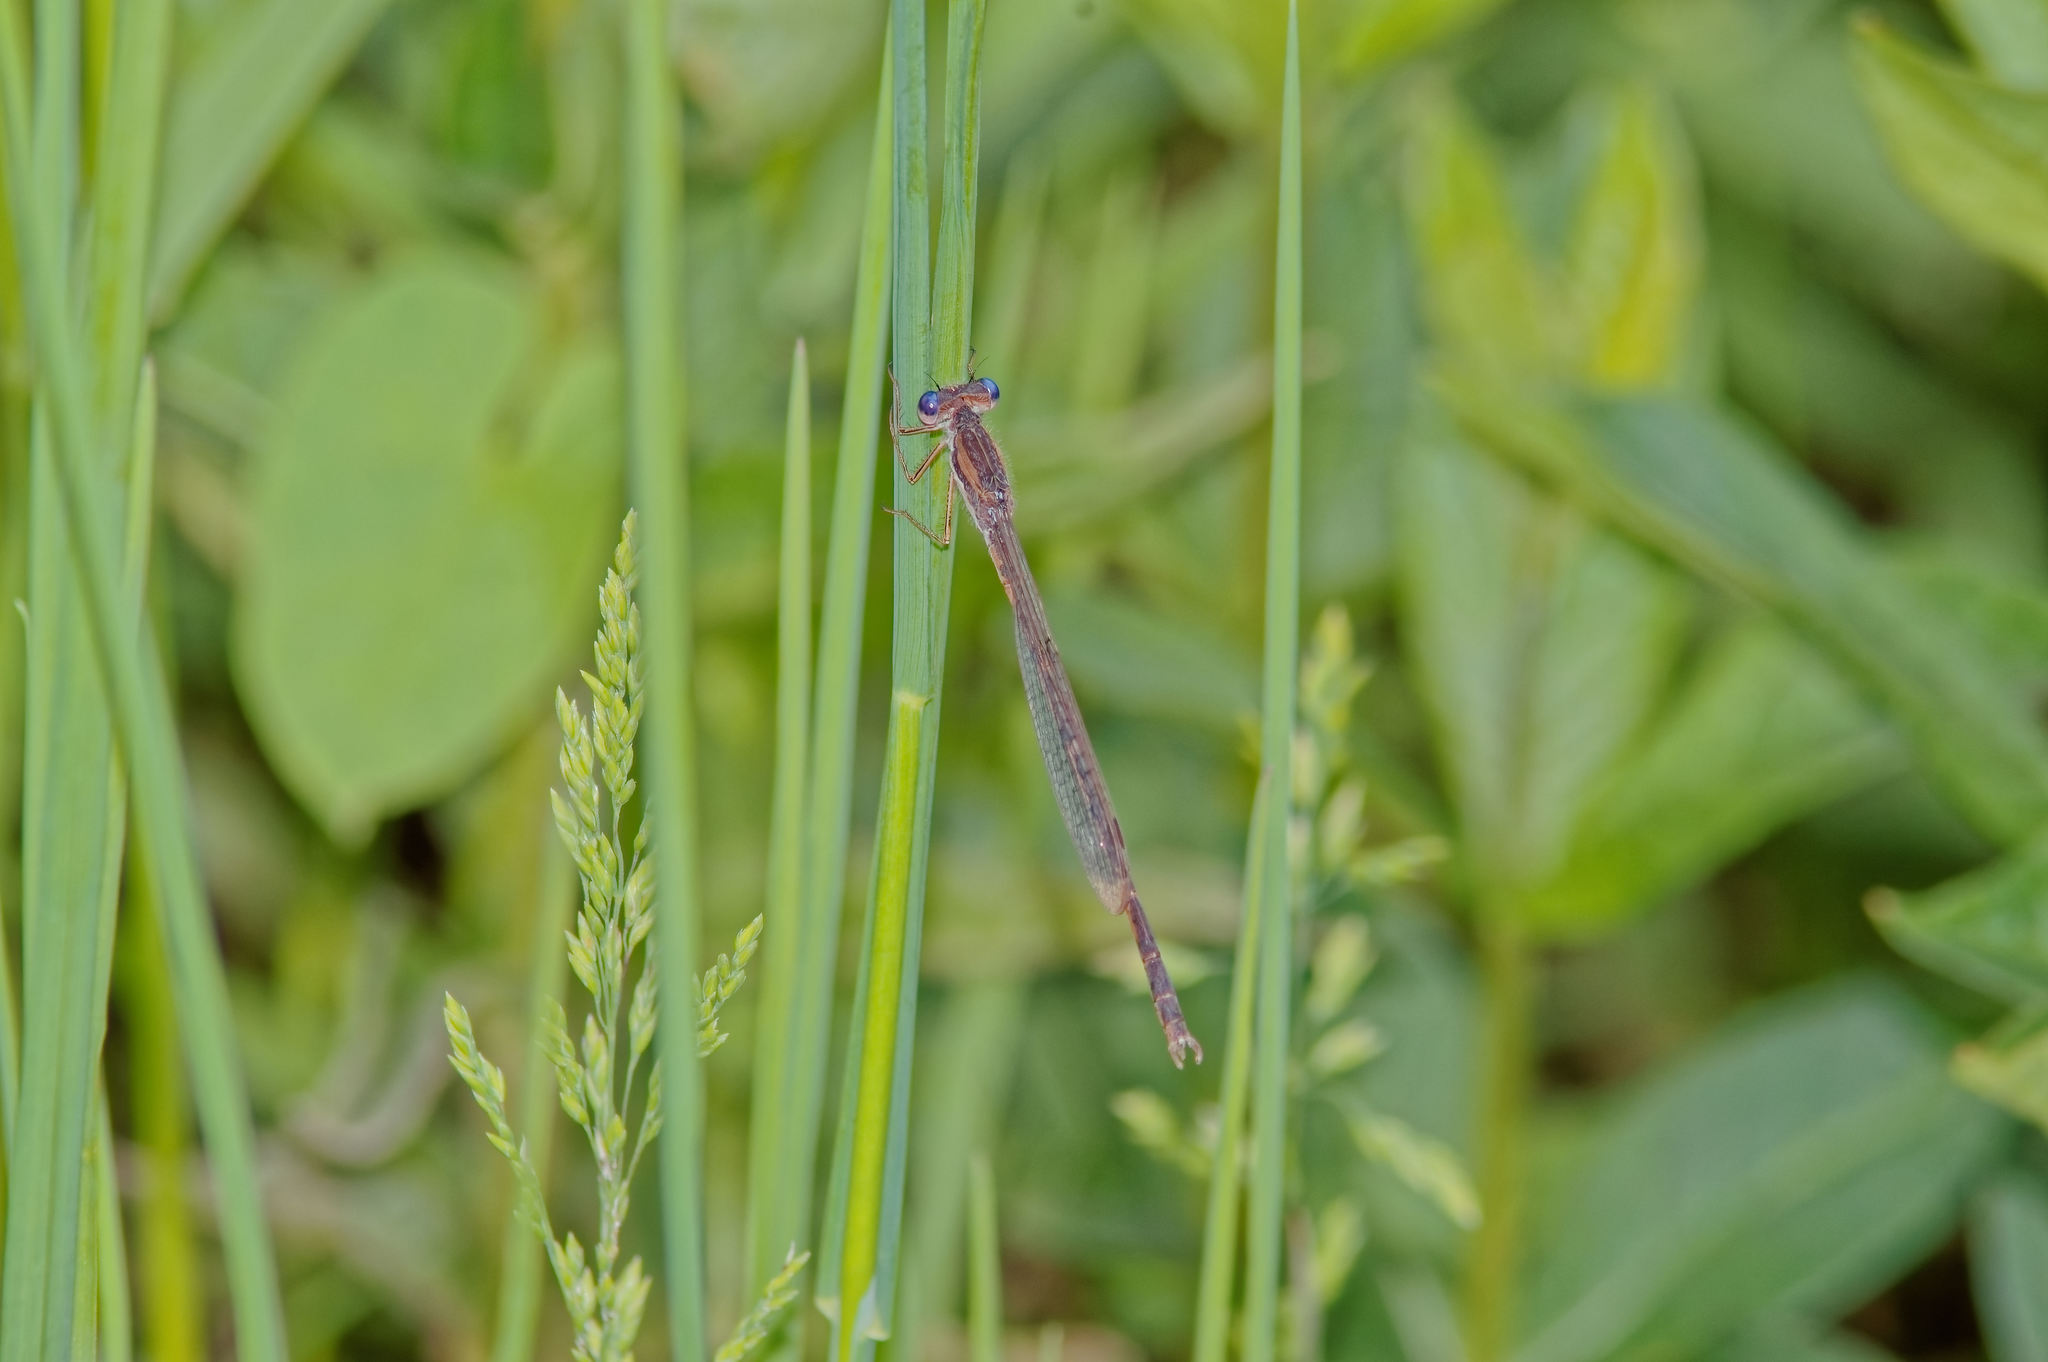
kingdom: Animalia
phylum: Arthropoda
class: Insecta
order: Odonata
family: Lestidae
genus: Sympecma
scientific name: Sympecma fusca
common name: Common winter damsel
